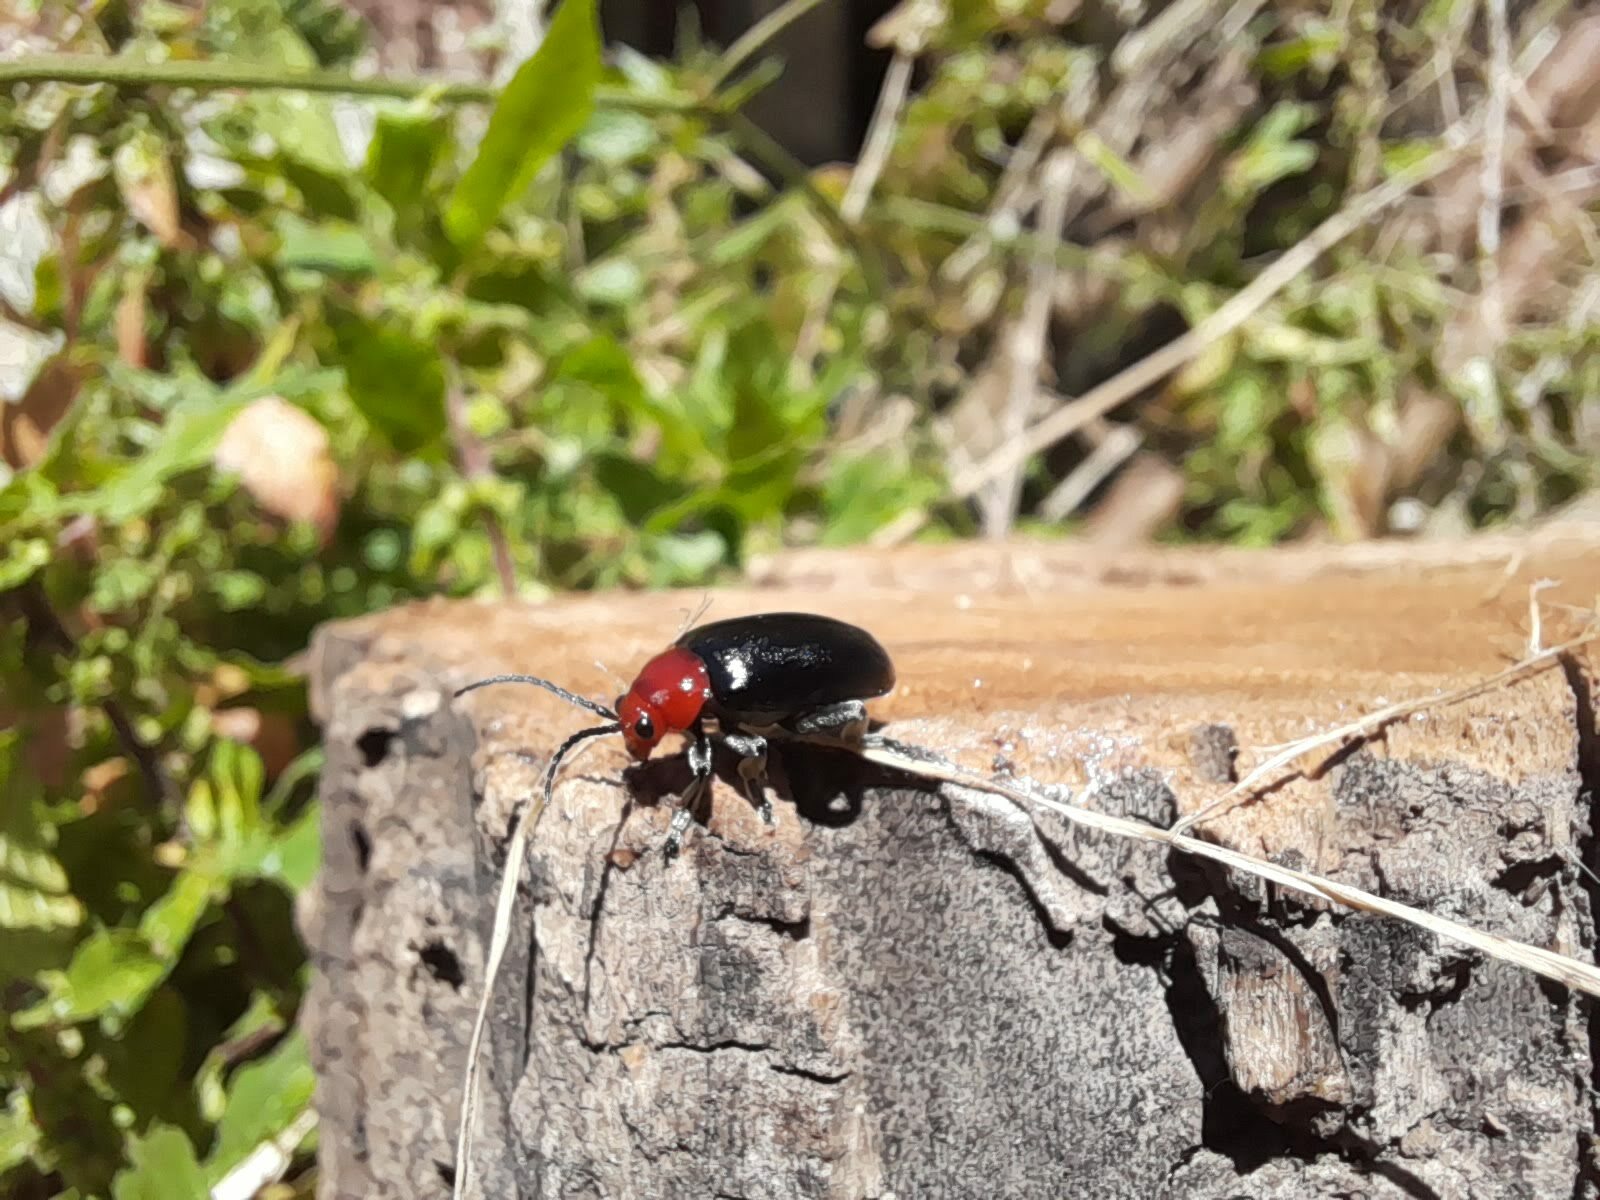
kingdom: Animalia
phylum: Arthropoda
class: Insecta
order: Coleoptera
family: Chrysomelidae
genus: Cacoscelis
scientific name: Cacoscelis
